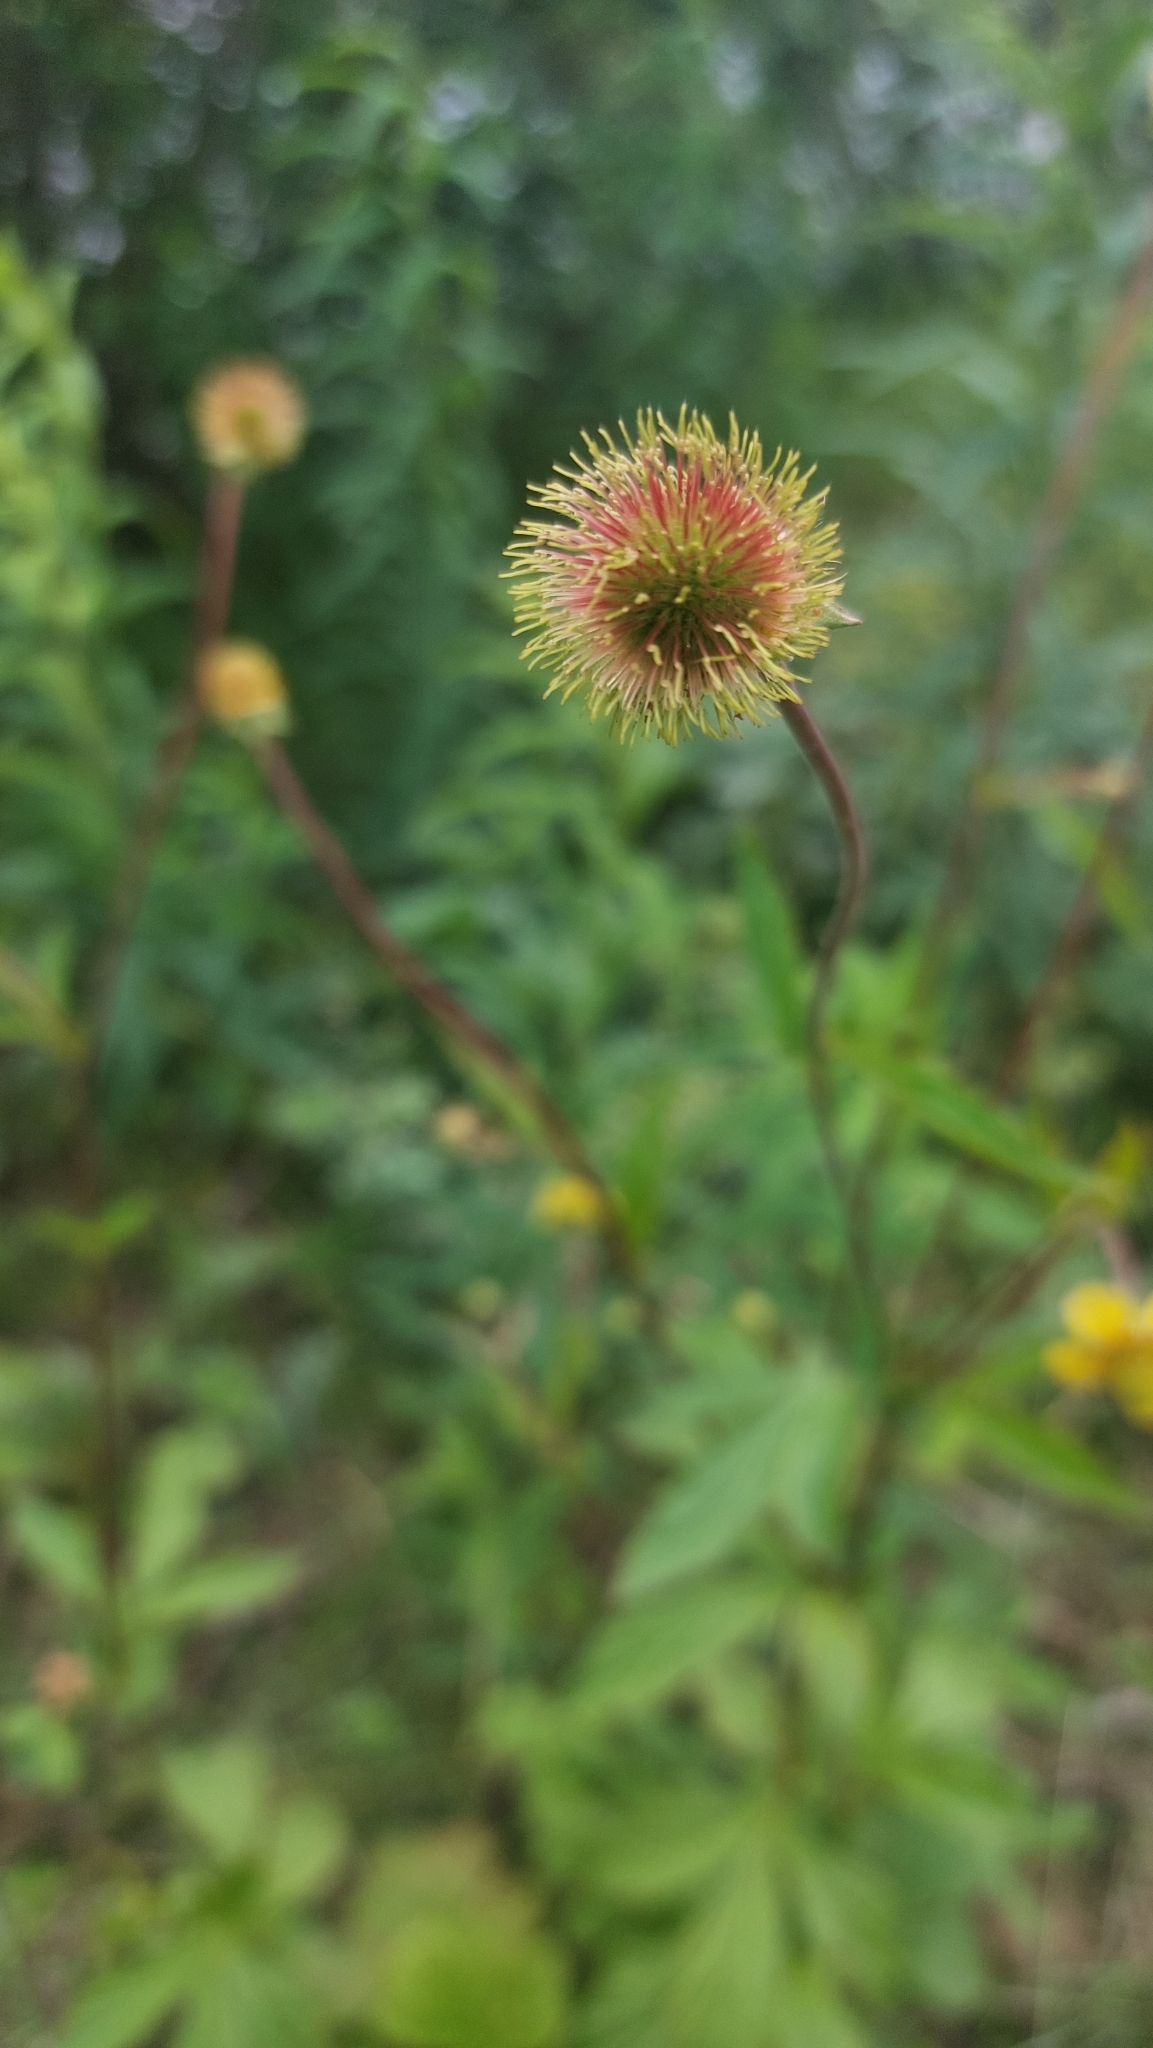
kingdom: Plantae
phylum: Tracheophyta
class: Magnoliopsida
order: Rosales
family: Rosaceae
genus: Geum
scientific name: Geum aleppicum
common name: Yellow avens
